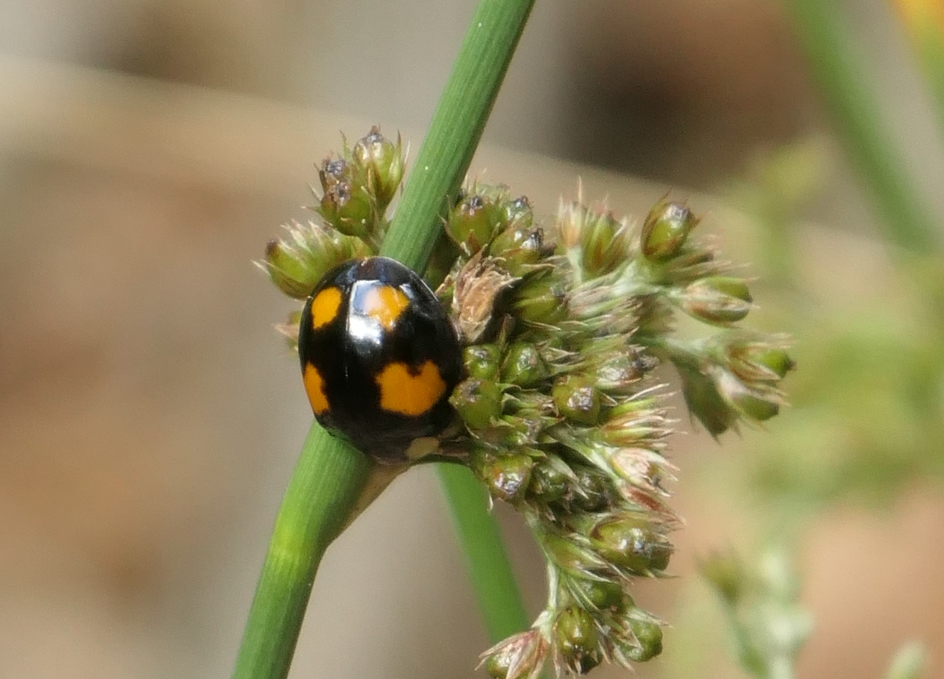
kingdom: Animalia
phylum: Arthropoda
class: Insecta
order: Coleoptera
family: Coccinellidae
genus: Harmonia
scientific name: Harmonia axyridis
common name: Harlequin ladybird
